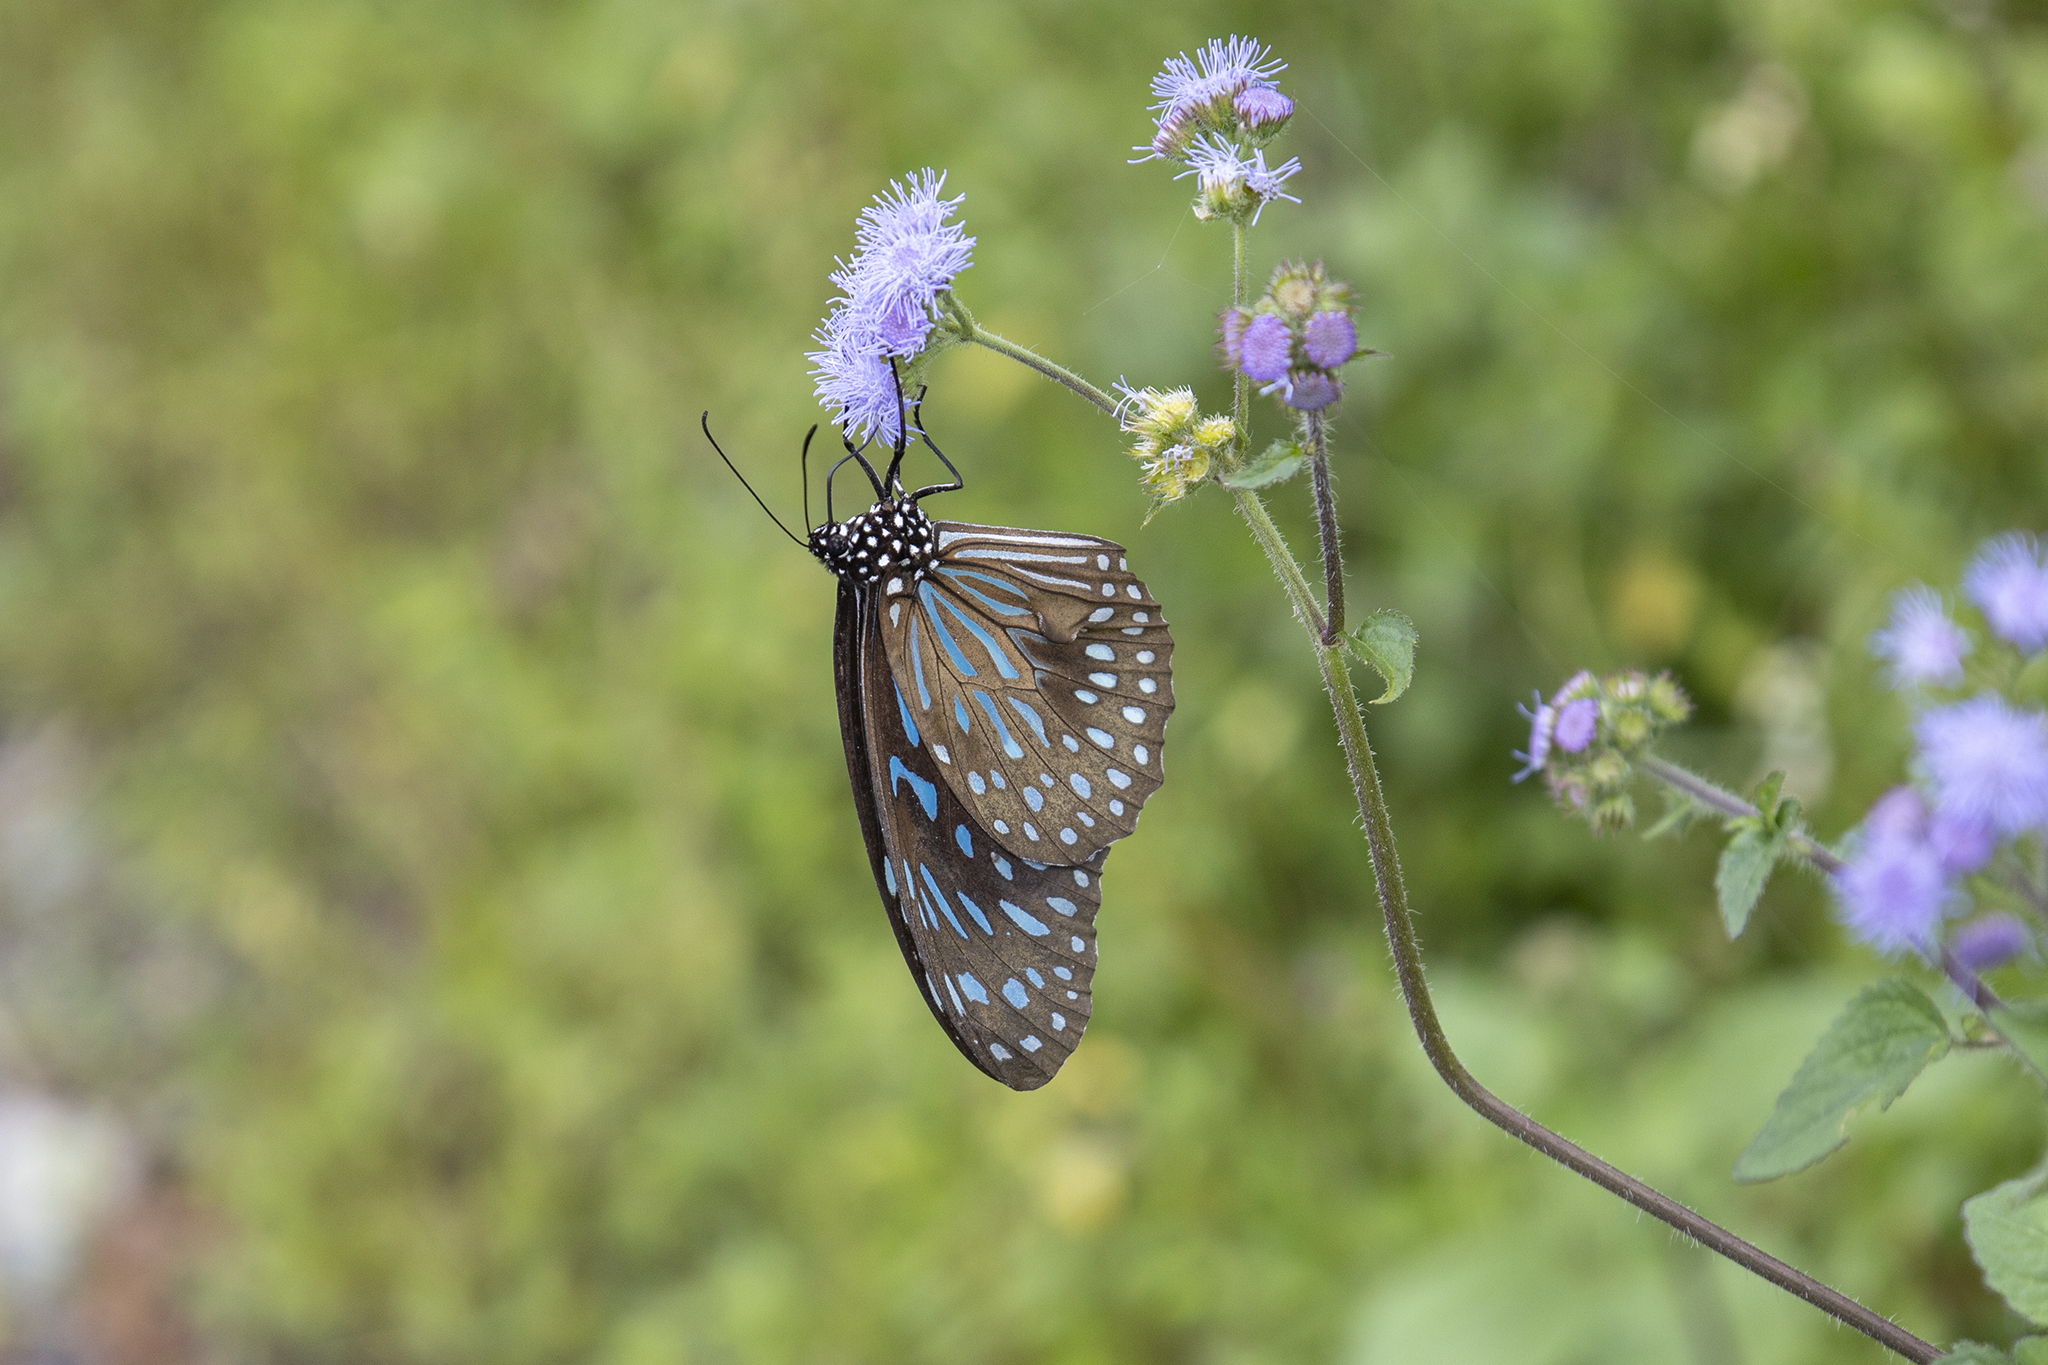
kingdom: Animalia
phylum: Arthropoda
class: Insecta
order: Lepidoptera
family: Nymphalidae
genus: Tirumala
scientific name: Tirumala septentrionis
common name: Dark blue tiger butterfly
